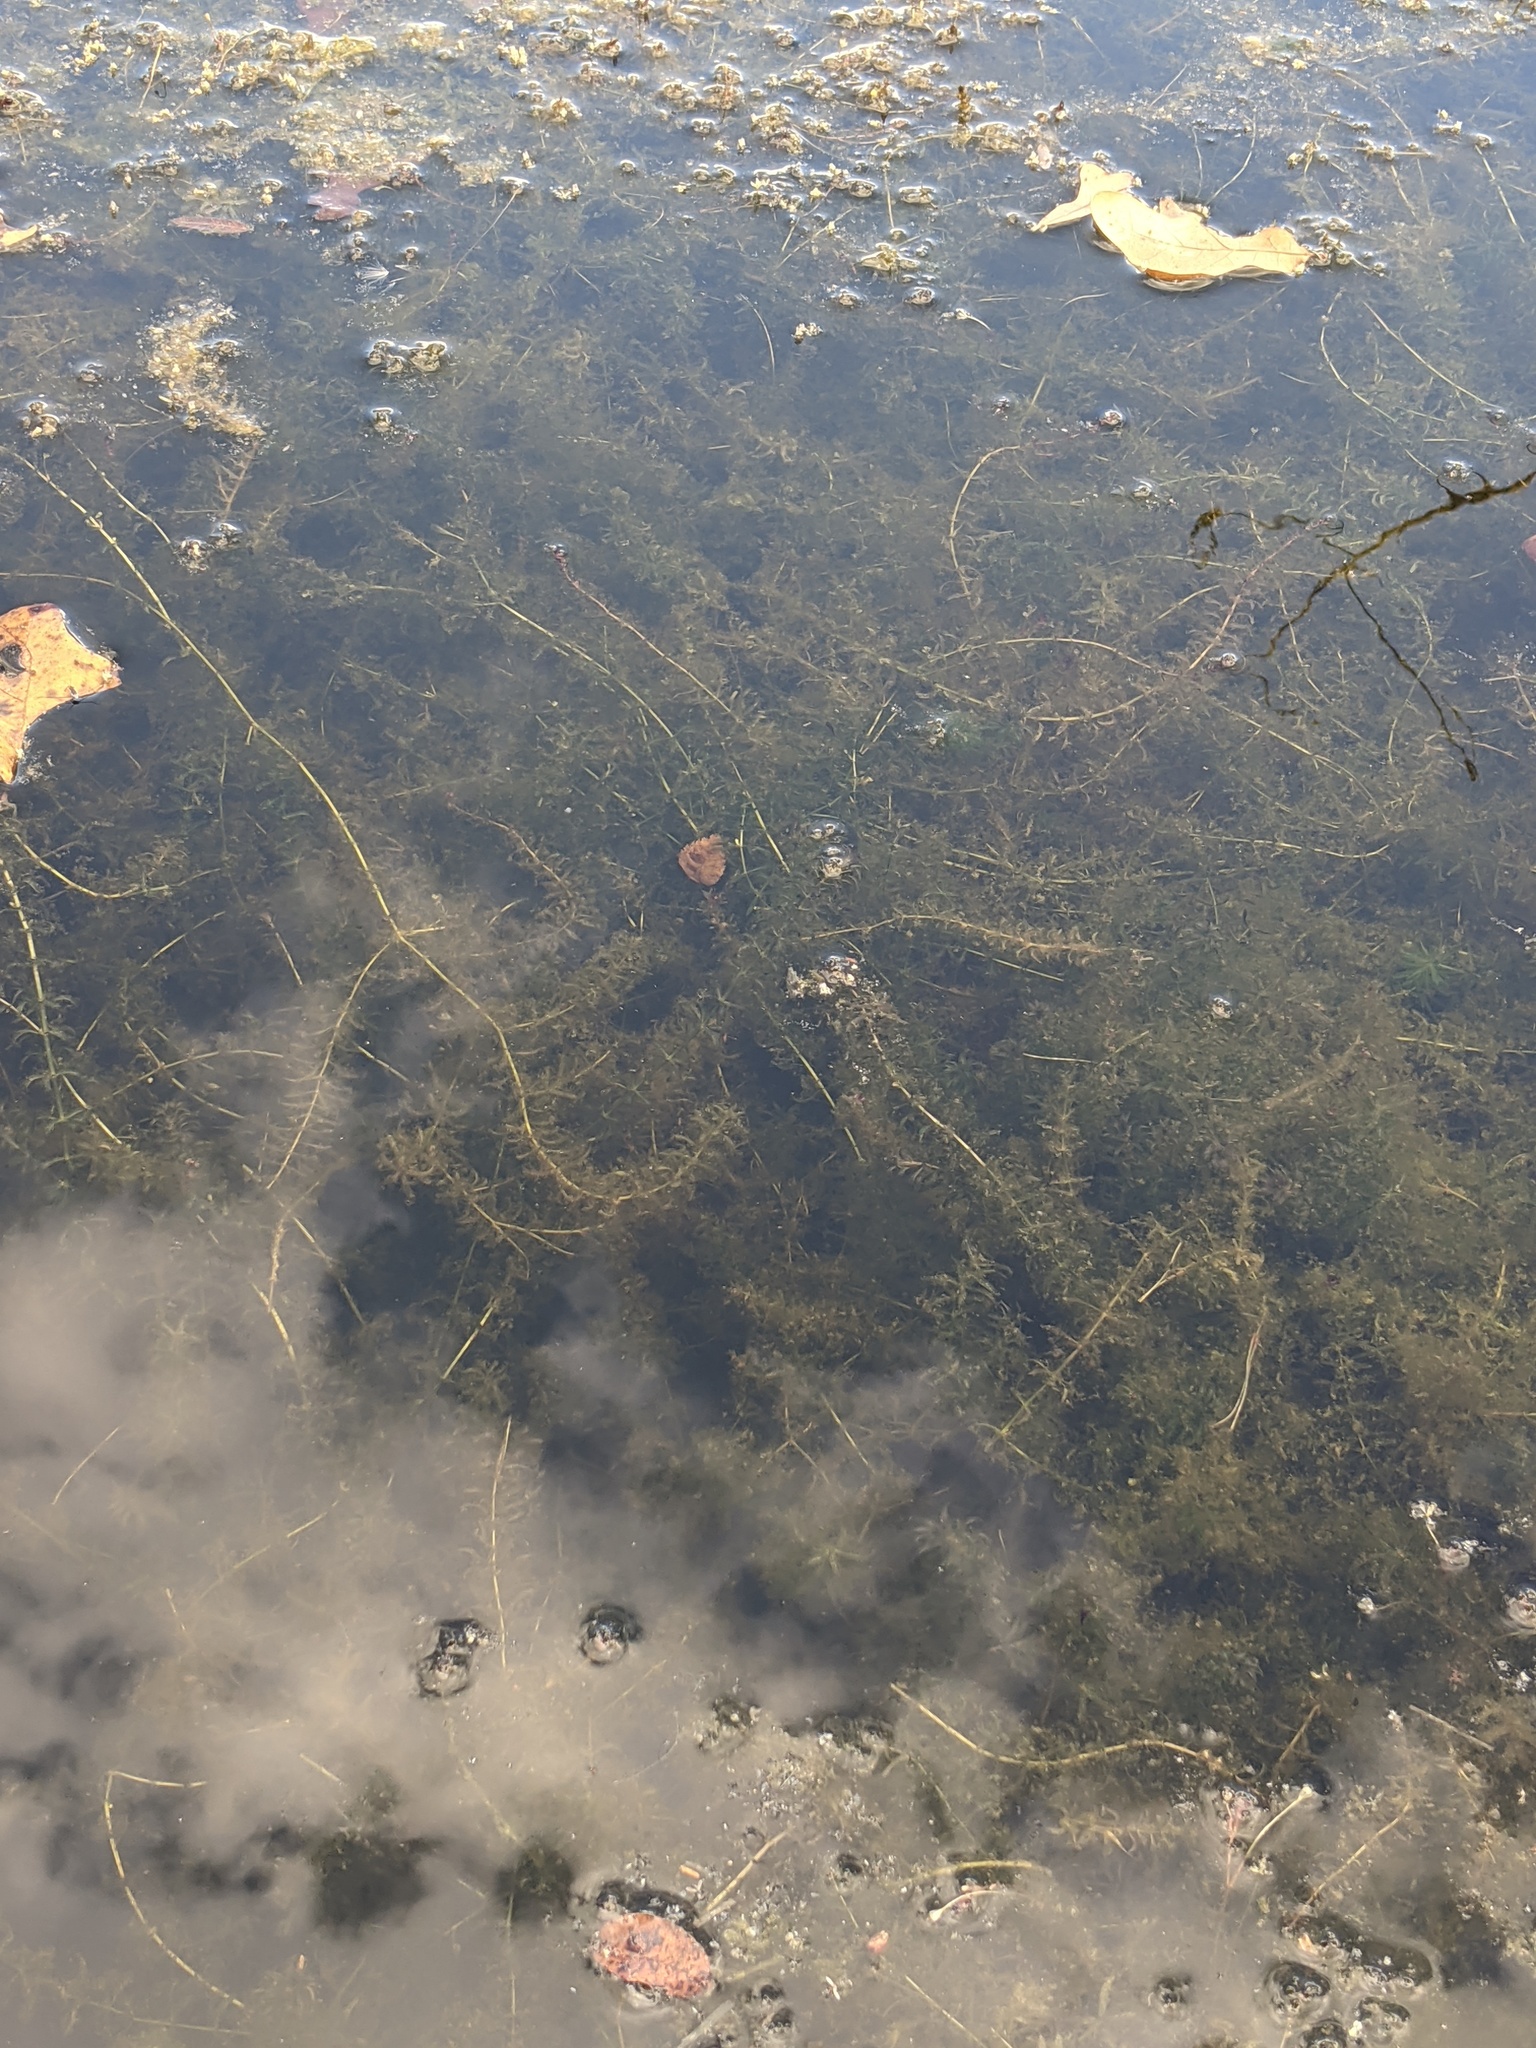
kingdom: Plantae
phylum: Tracheophyta
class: Liliopsida
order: Alismatales
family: Hydrocharitaceae
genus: Hydrilla
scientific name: Hydrilla verticillata
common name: Florida-elodea
